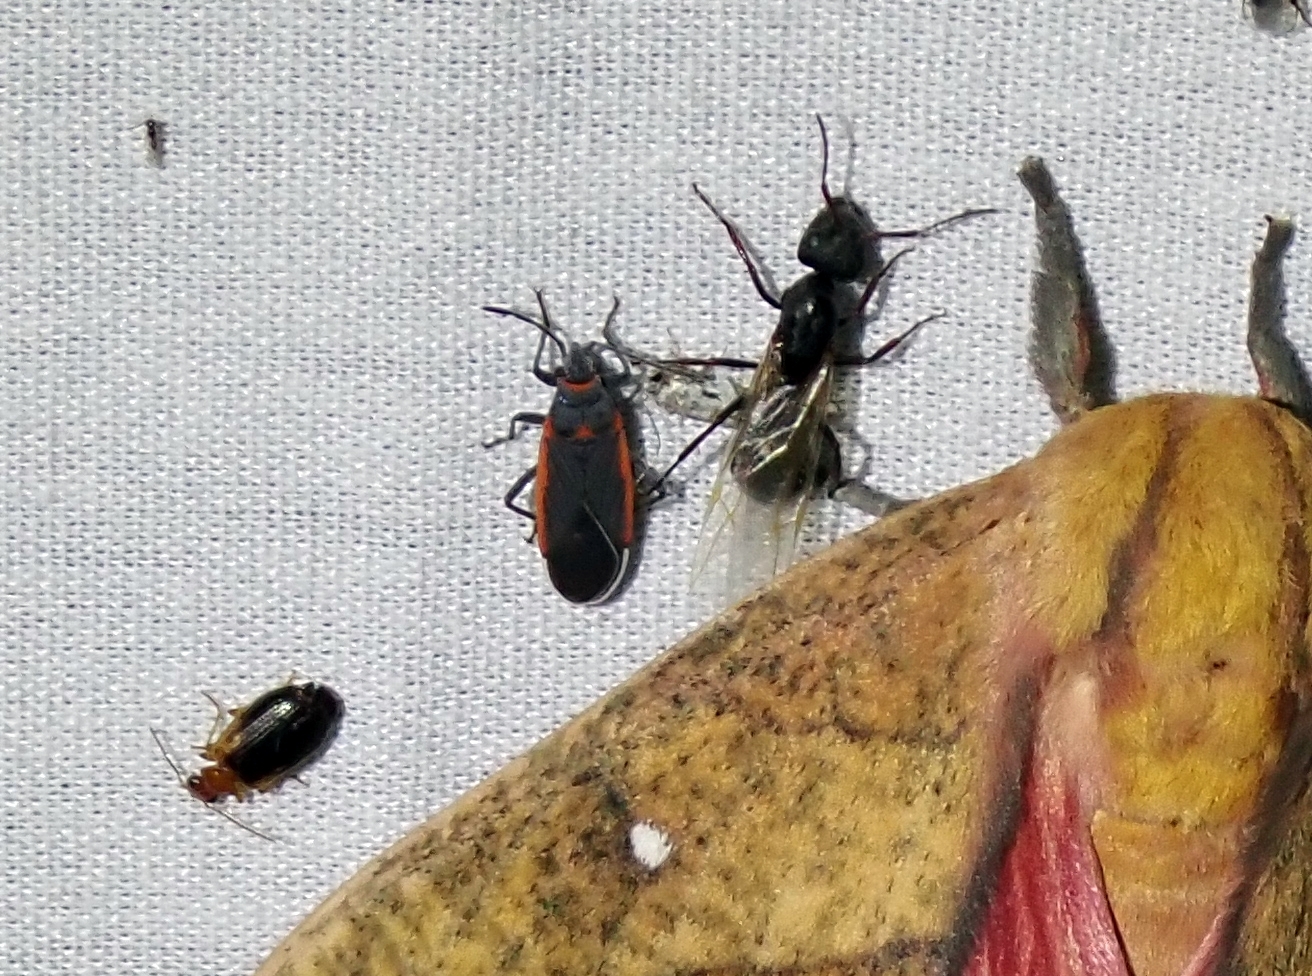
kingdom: Animalia
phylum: Arthropoda
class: Insecta
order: Hemiptera
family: Lygaeidae
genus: Melacoryphus
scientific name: Melacoryphus lateralis
